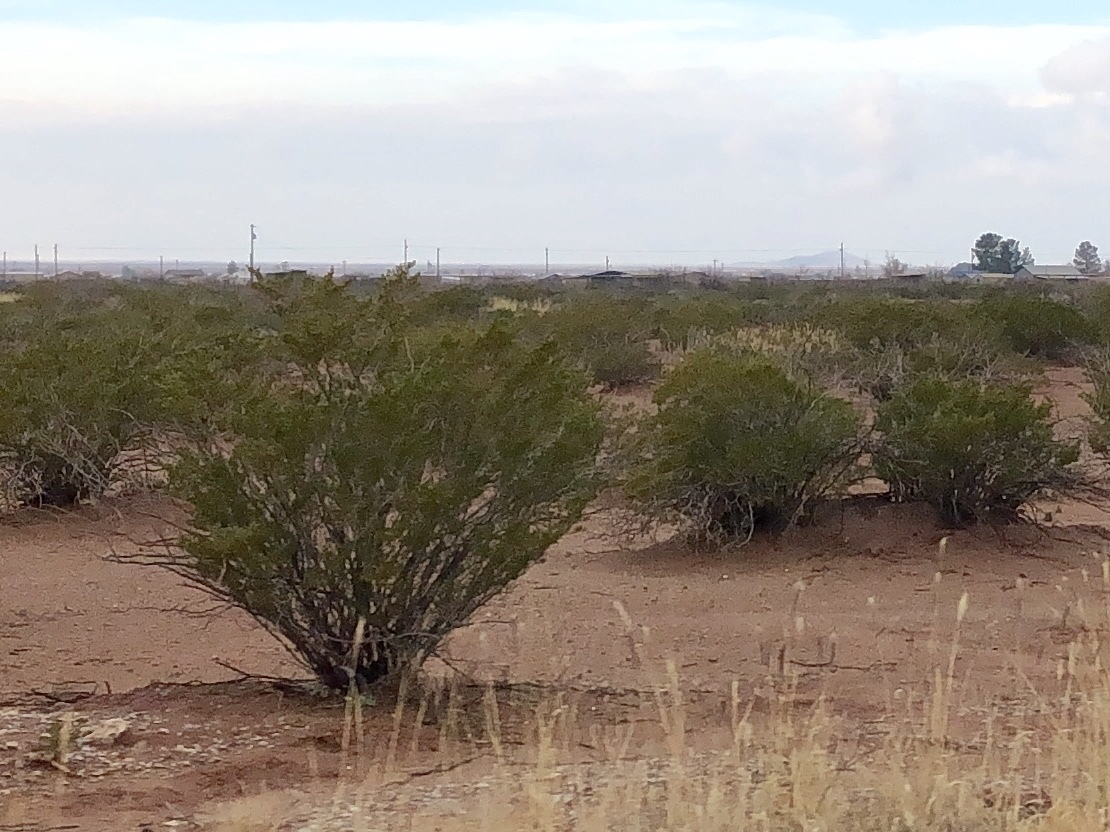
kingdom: Plantae
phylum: Tracheophyta
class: Magnoliopsida
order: Zygophyllales
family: Zygophyllaceae
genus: Larrea
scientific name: Larrea tridentata
